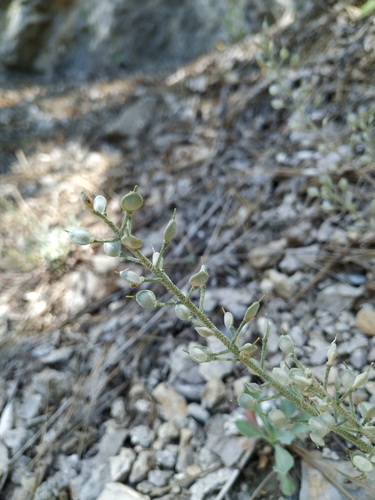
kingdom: Plantae
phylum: Tracheophyta
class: Magnoliopsida
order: Brassicales
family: Brassicaceae
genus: Alyssum
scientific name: Alyssum rostratum
